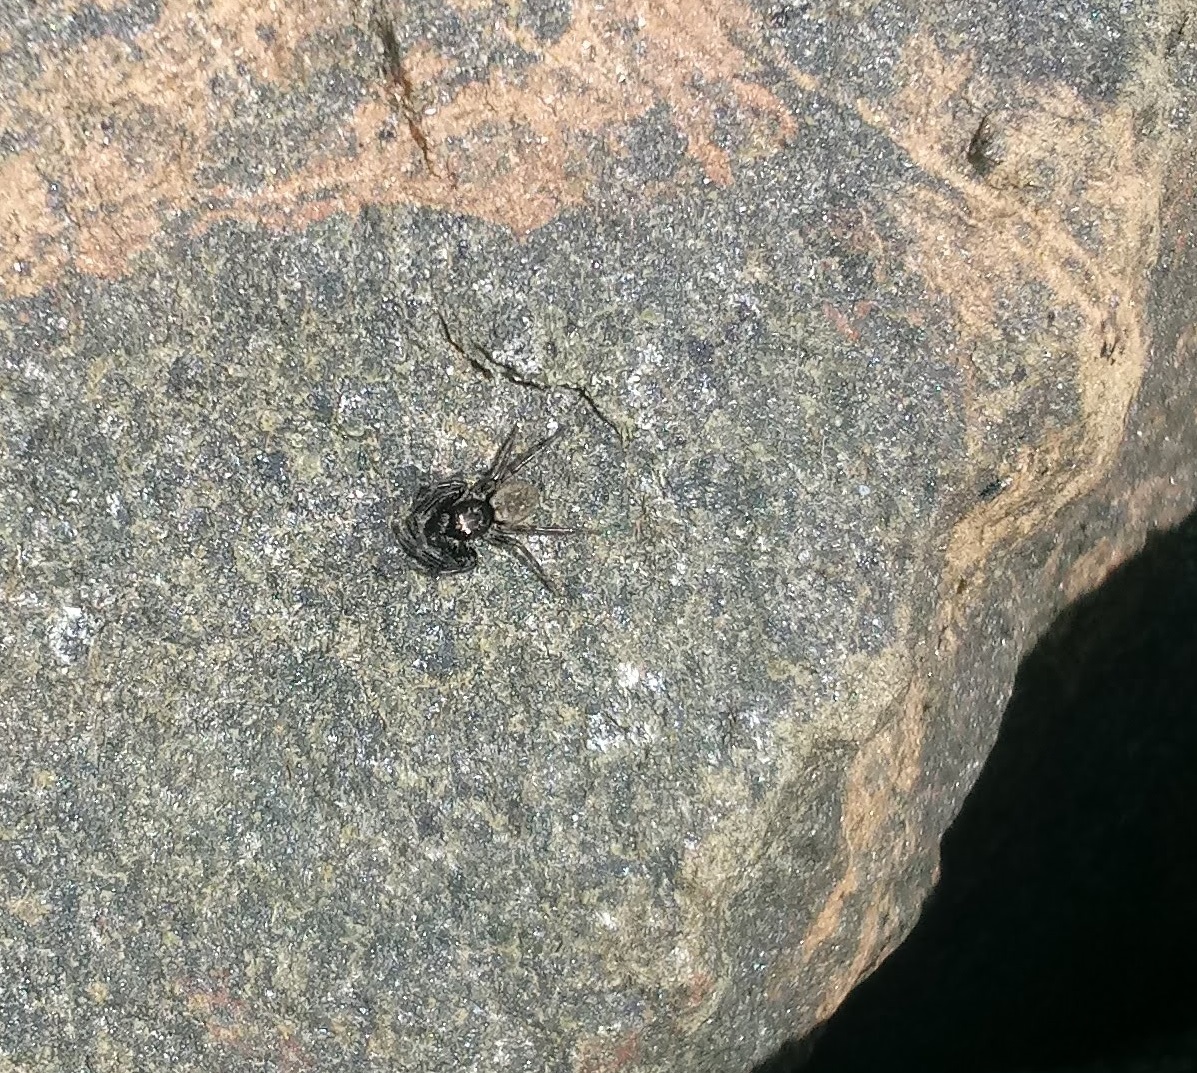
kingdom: Animalia
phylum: Arthropoda
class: Arachnida
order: Araneae
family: Salticidae
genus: Hakka
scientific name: Hakka himeshimensis
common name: Jumping spider
